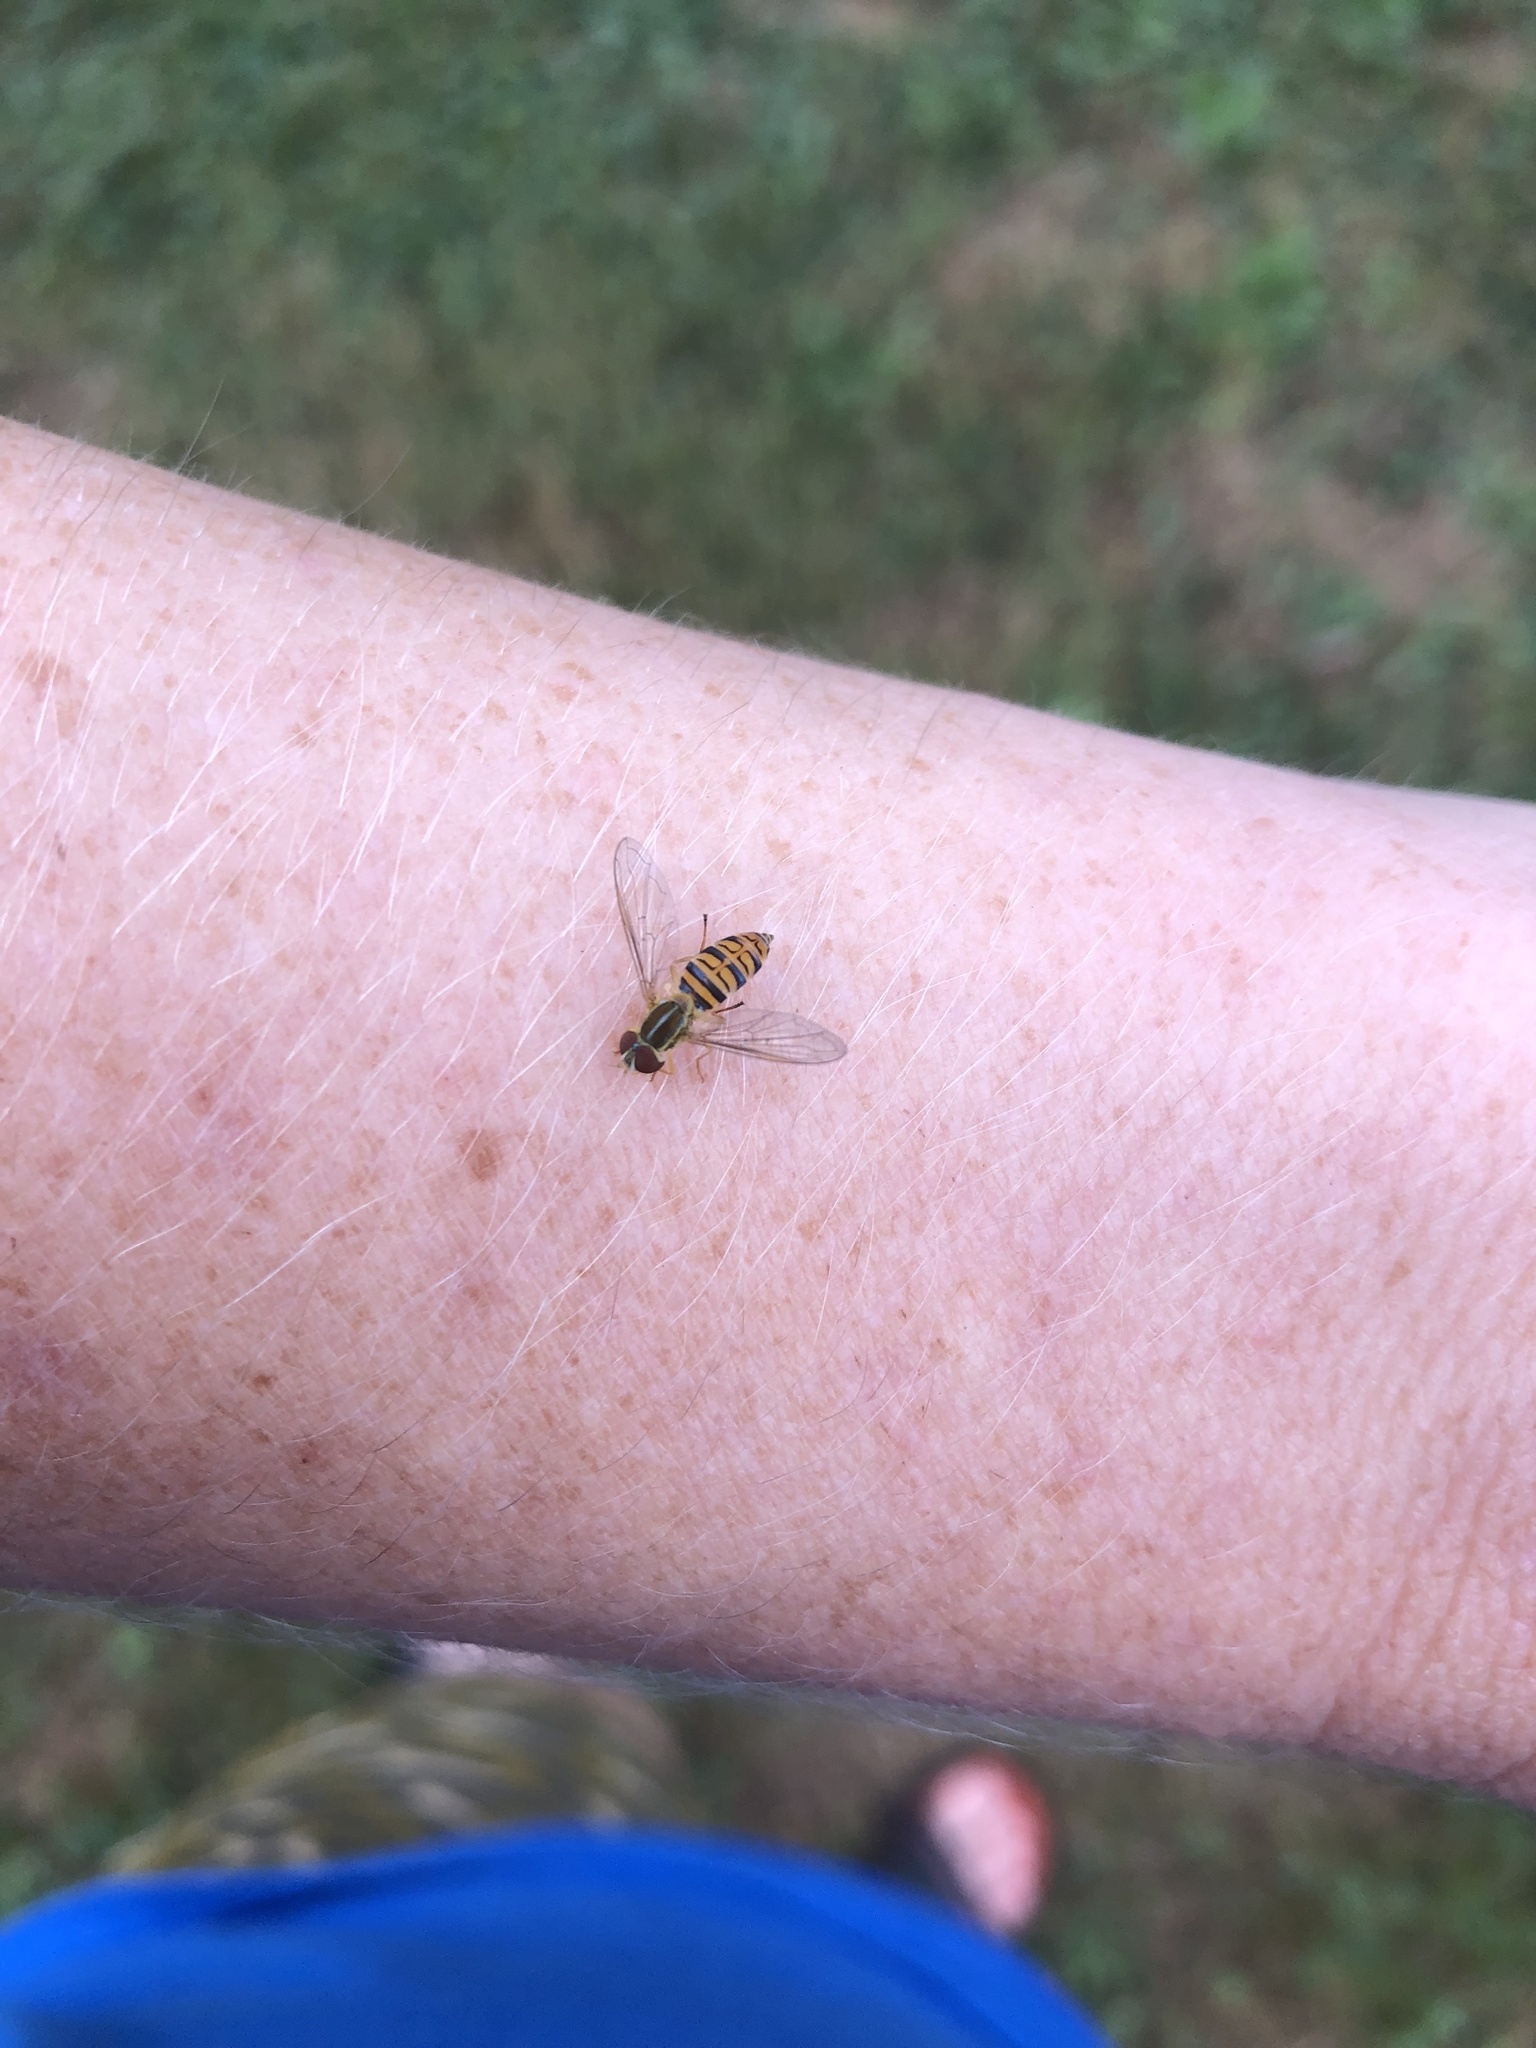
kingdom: Animalia
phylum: Arthropoda
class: Insecta
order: Diptera
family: Syrphidae
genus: Toxomerus
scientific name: Toxomerus politus
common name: Maize calligrapher
